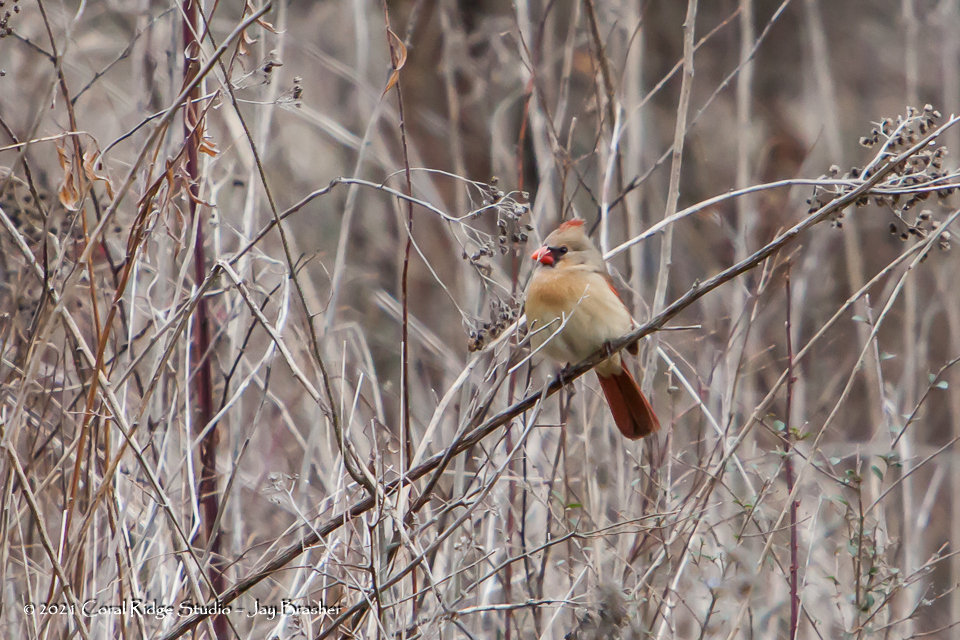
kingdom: Animalia
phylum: Chordata
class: Aves
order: Passeriformes
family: Cardinalidae
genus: Cardinalis
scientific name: Cardinalis cardinalis
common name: Northern cardinal
